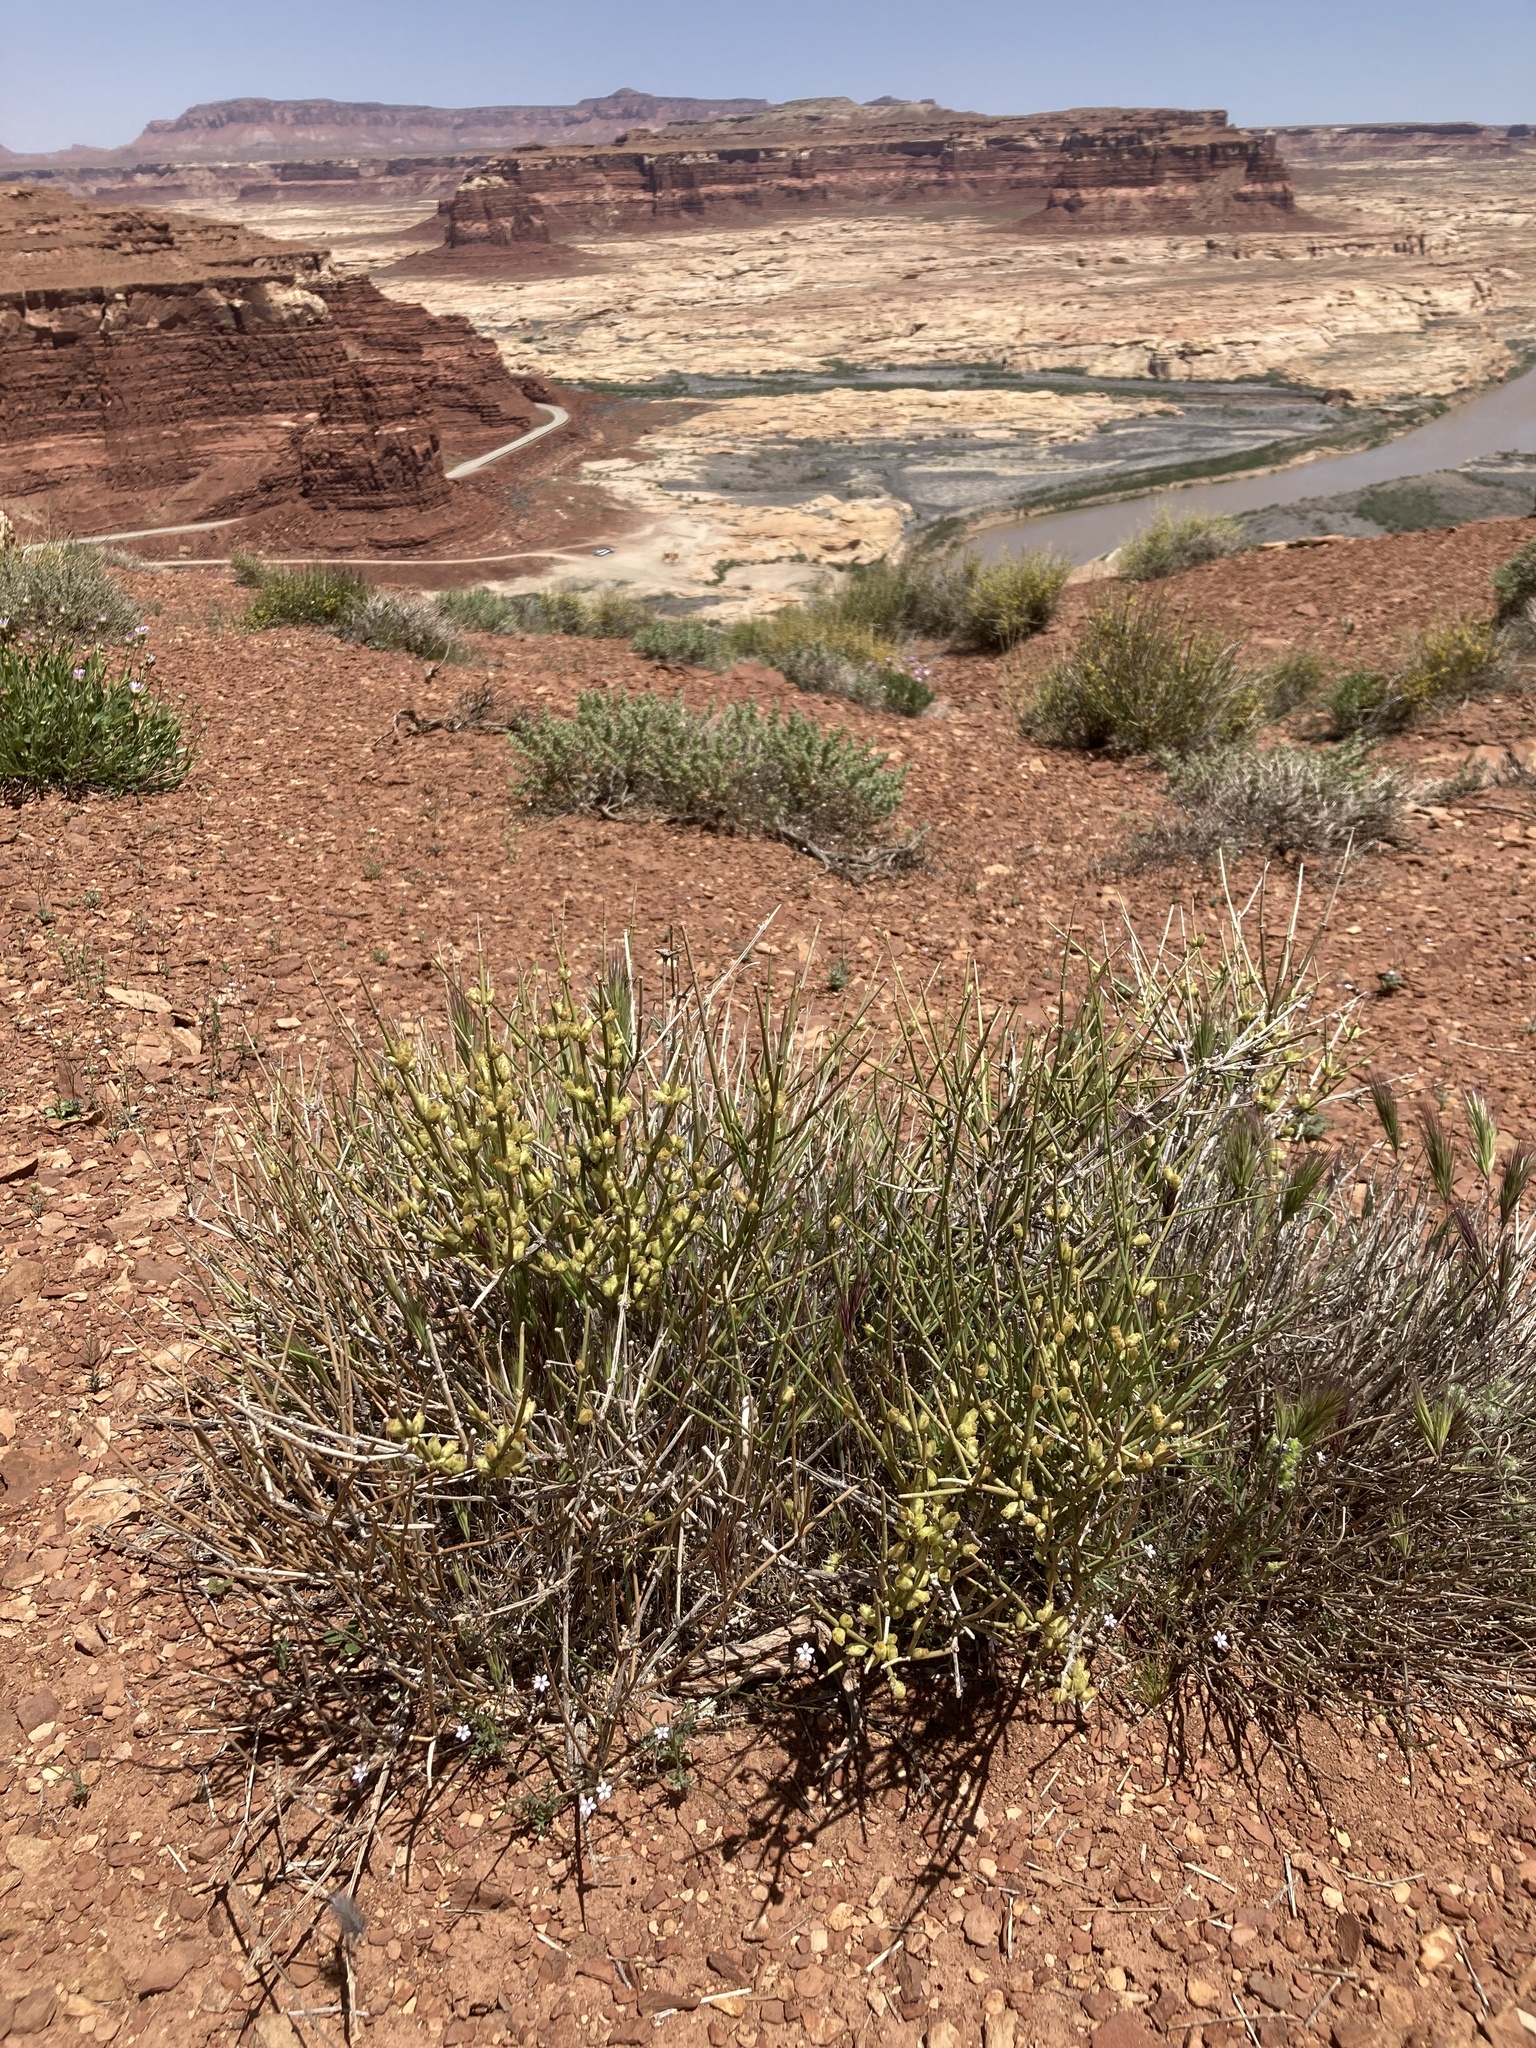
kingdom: Plantae
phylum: Tracheophyta
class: Gnetopsida
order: Ephedrales
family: Ephedraceae
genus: Ephedra
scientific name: Ephedra torreyana
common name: Torrey ephedra
